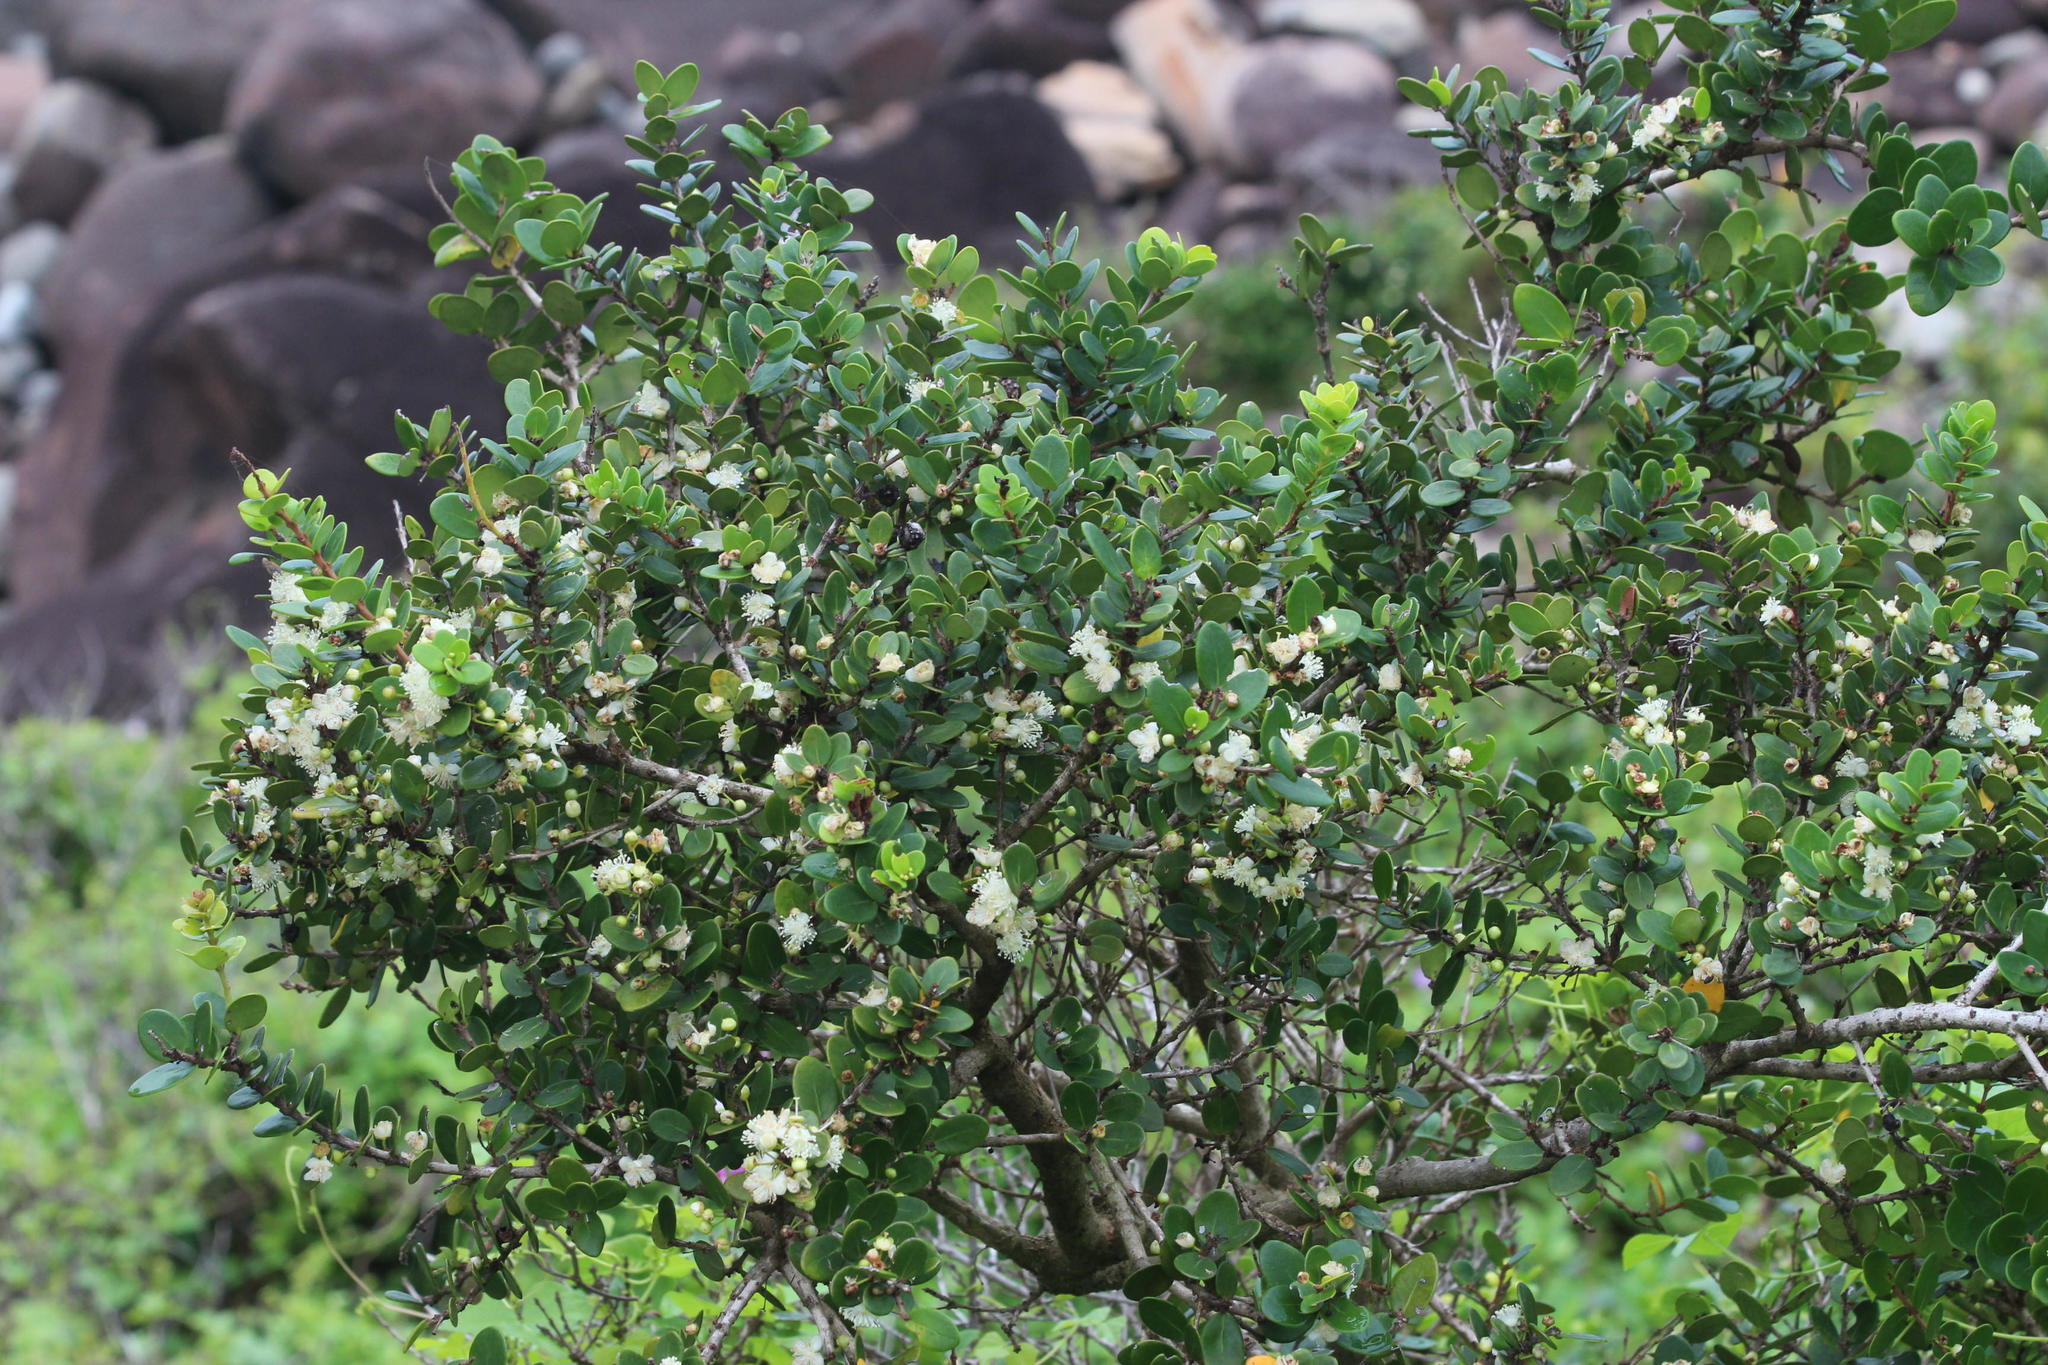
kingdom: Plantae
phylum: Tracheophyta
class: Magnoliopsida
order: Myrtales
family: Myrtaceae
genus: Eugenia
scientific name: Eugenia capensis
